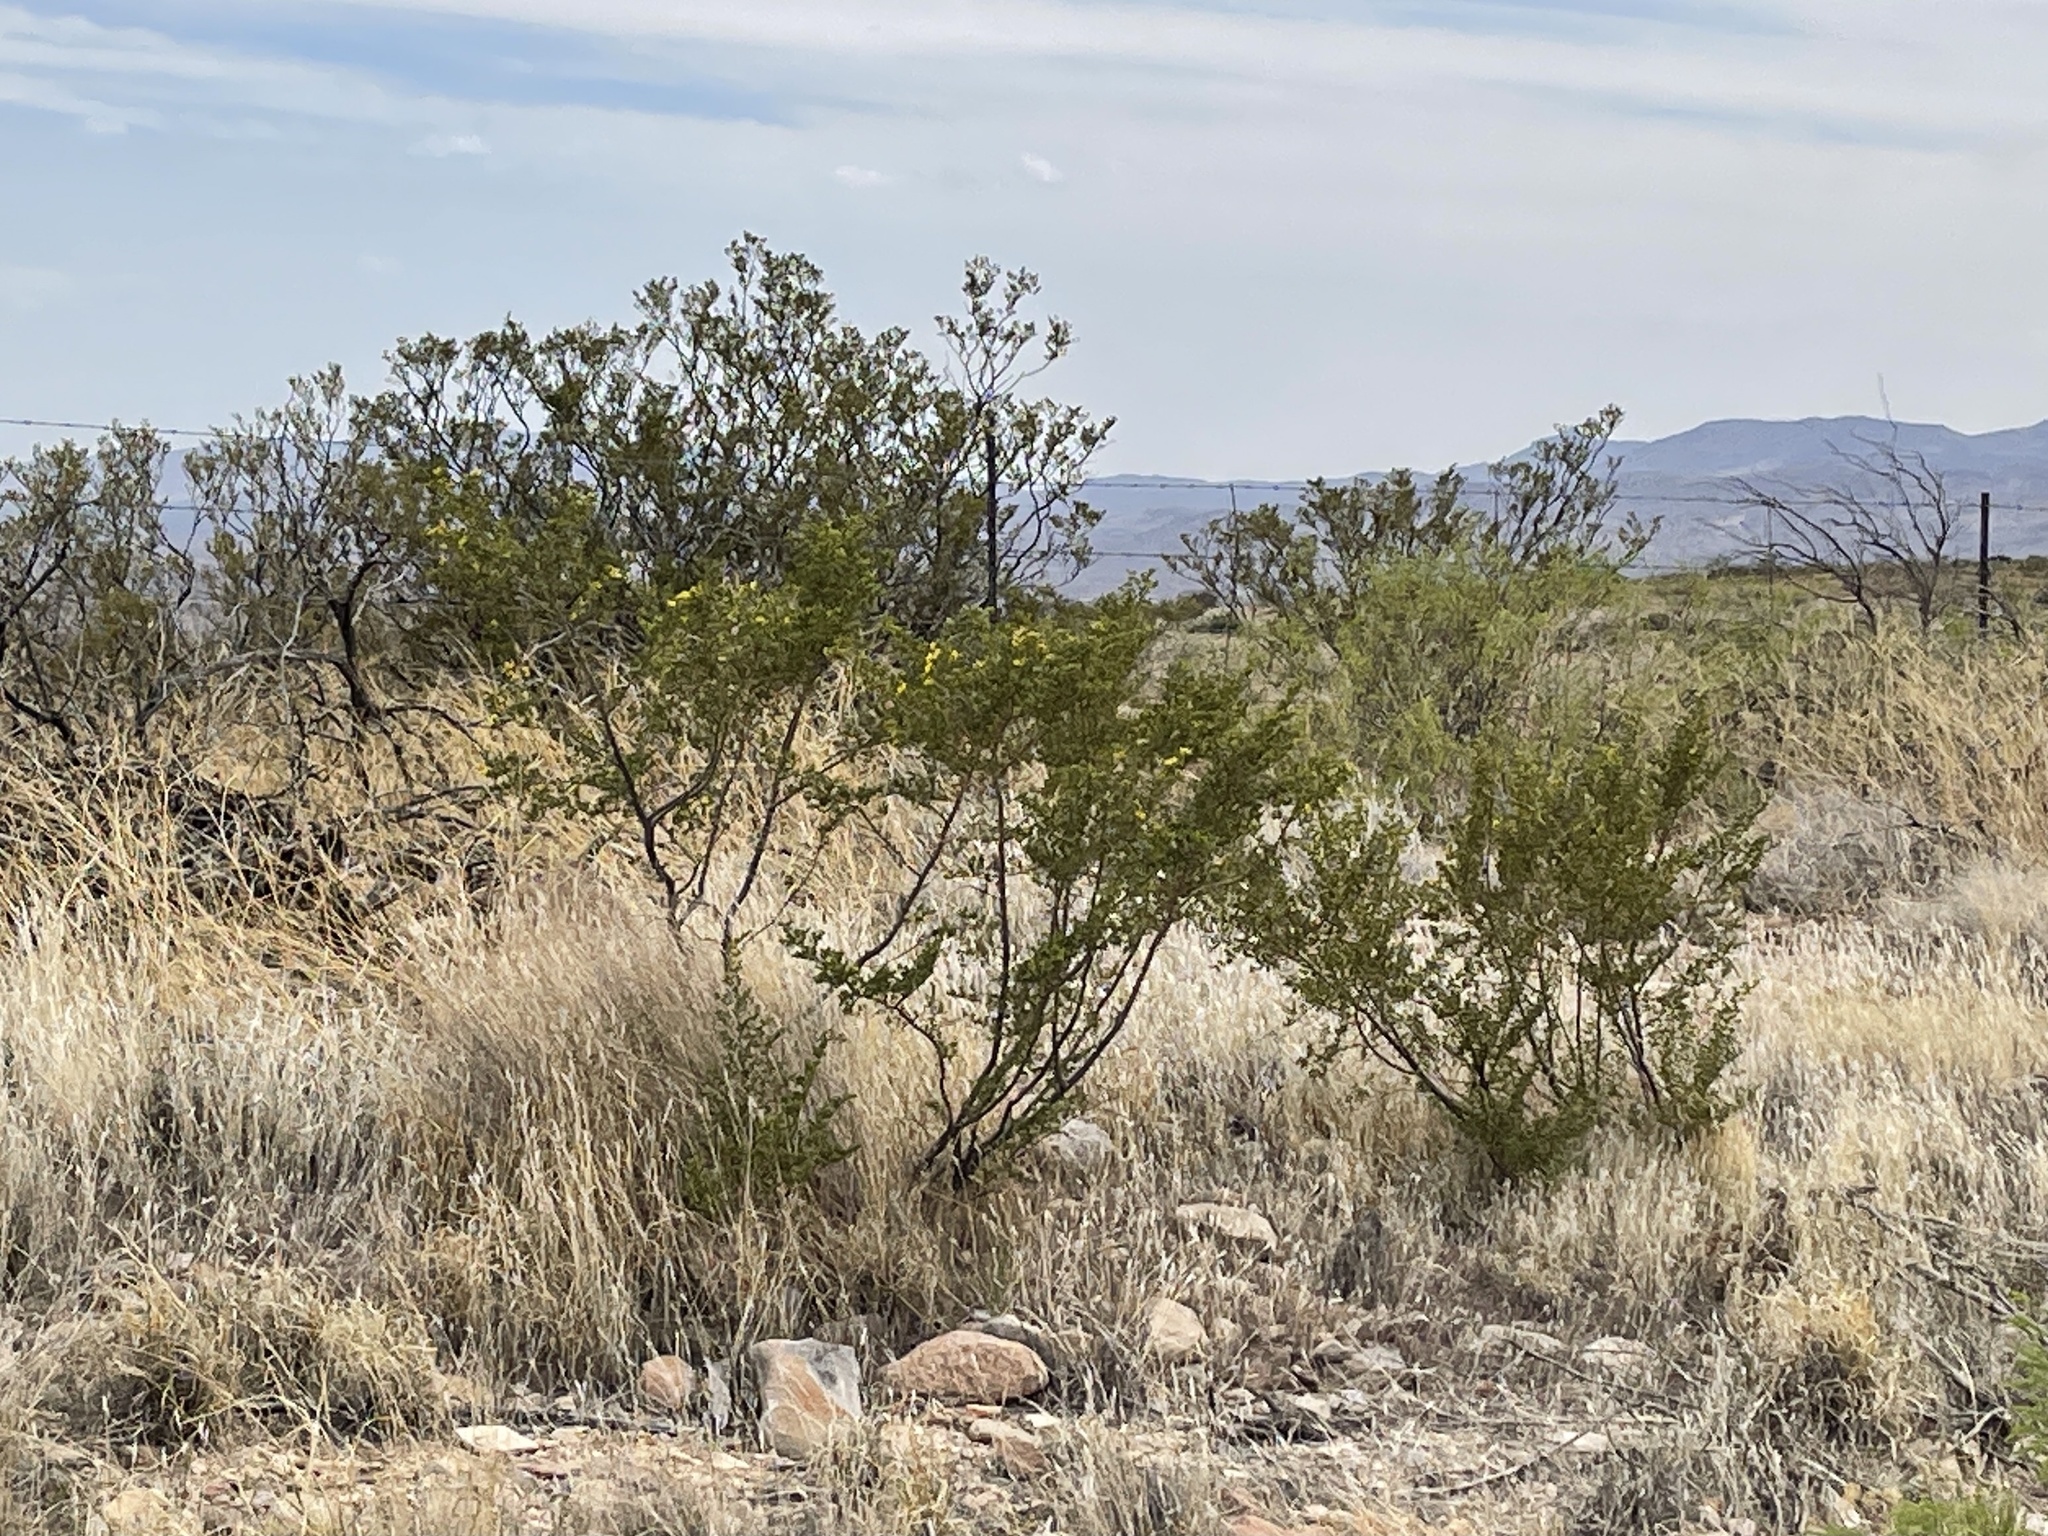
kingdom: Plantae
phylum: Tracheophyta
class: Magnoliopsida
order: Zygophyllales
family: Zygophyllaceae
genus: Larrea
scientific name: Larrea tridentata
